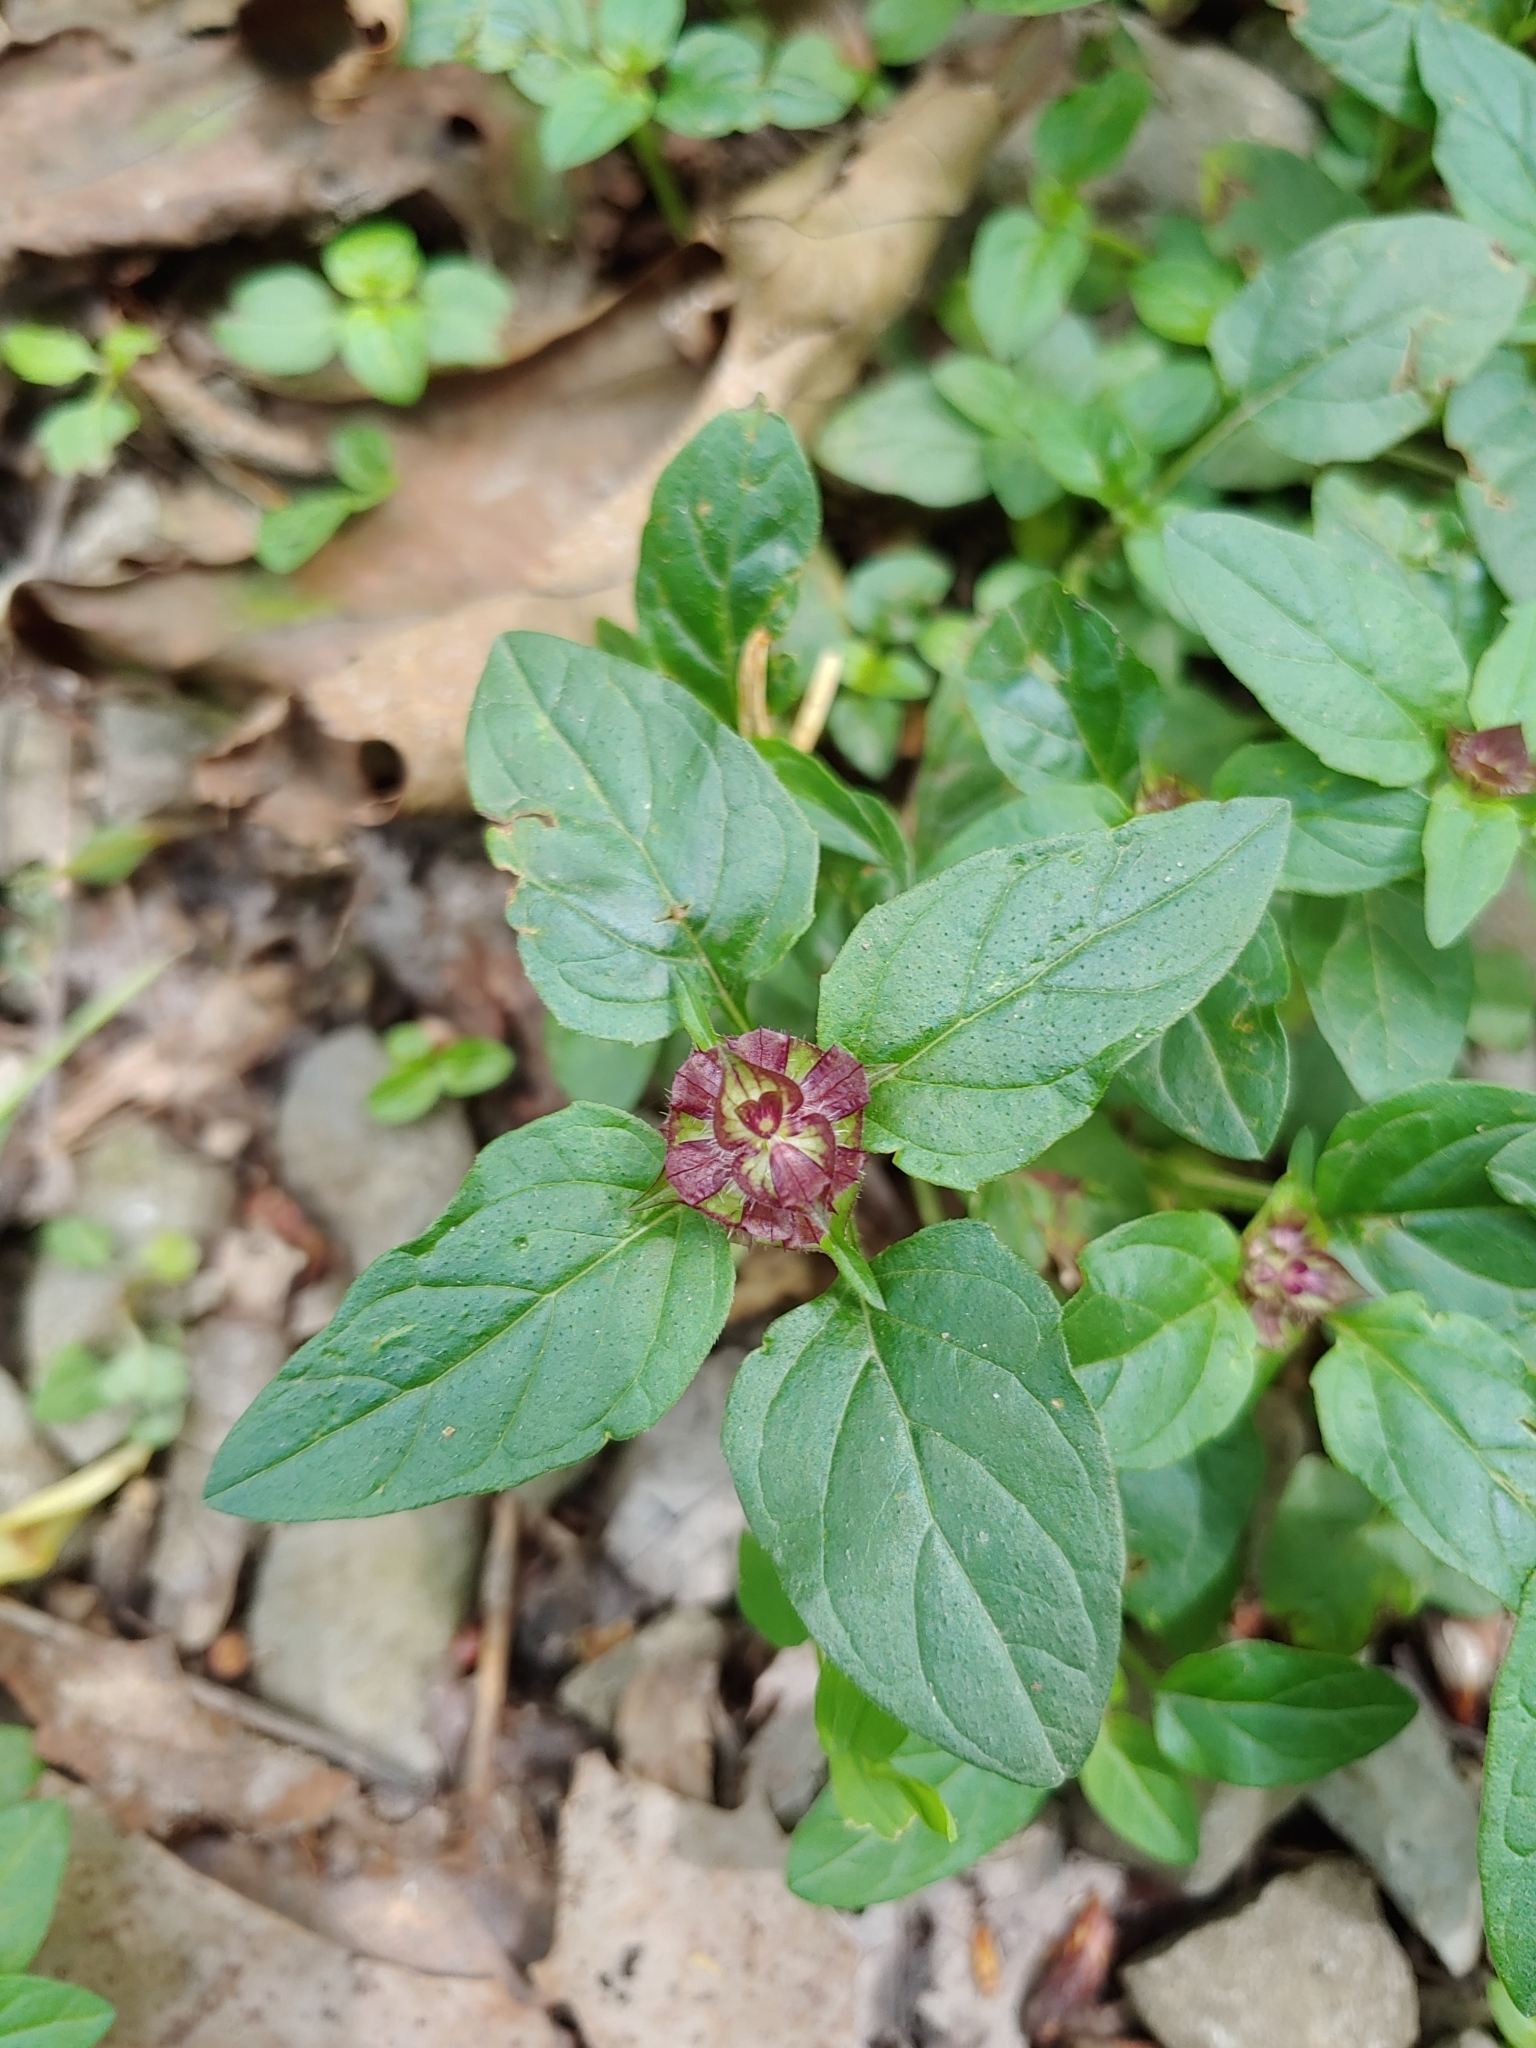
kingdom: Plantae
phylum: Tracheophyta
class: Magnoliopsida
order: Lamiales
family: Lamiaceae
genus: Prunella
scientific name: Prunella vulgaris
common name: Heal-all
